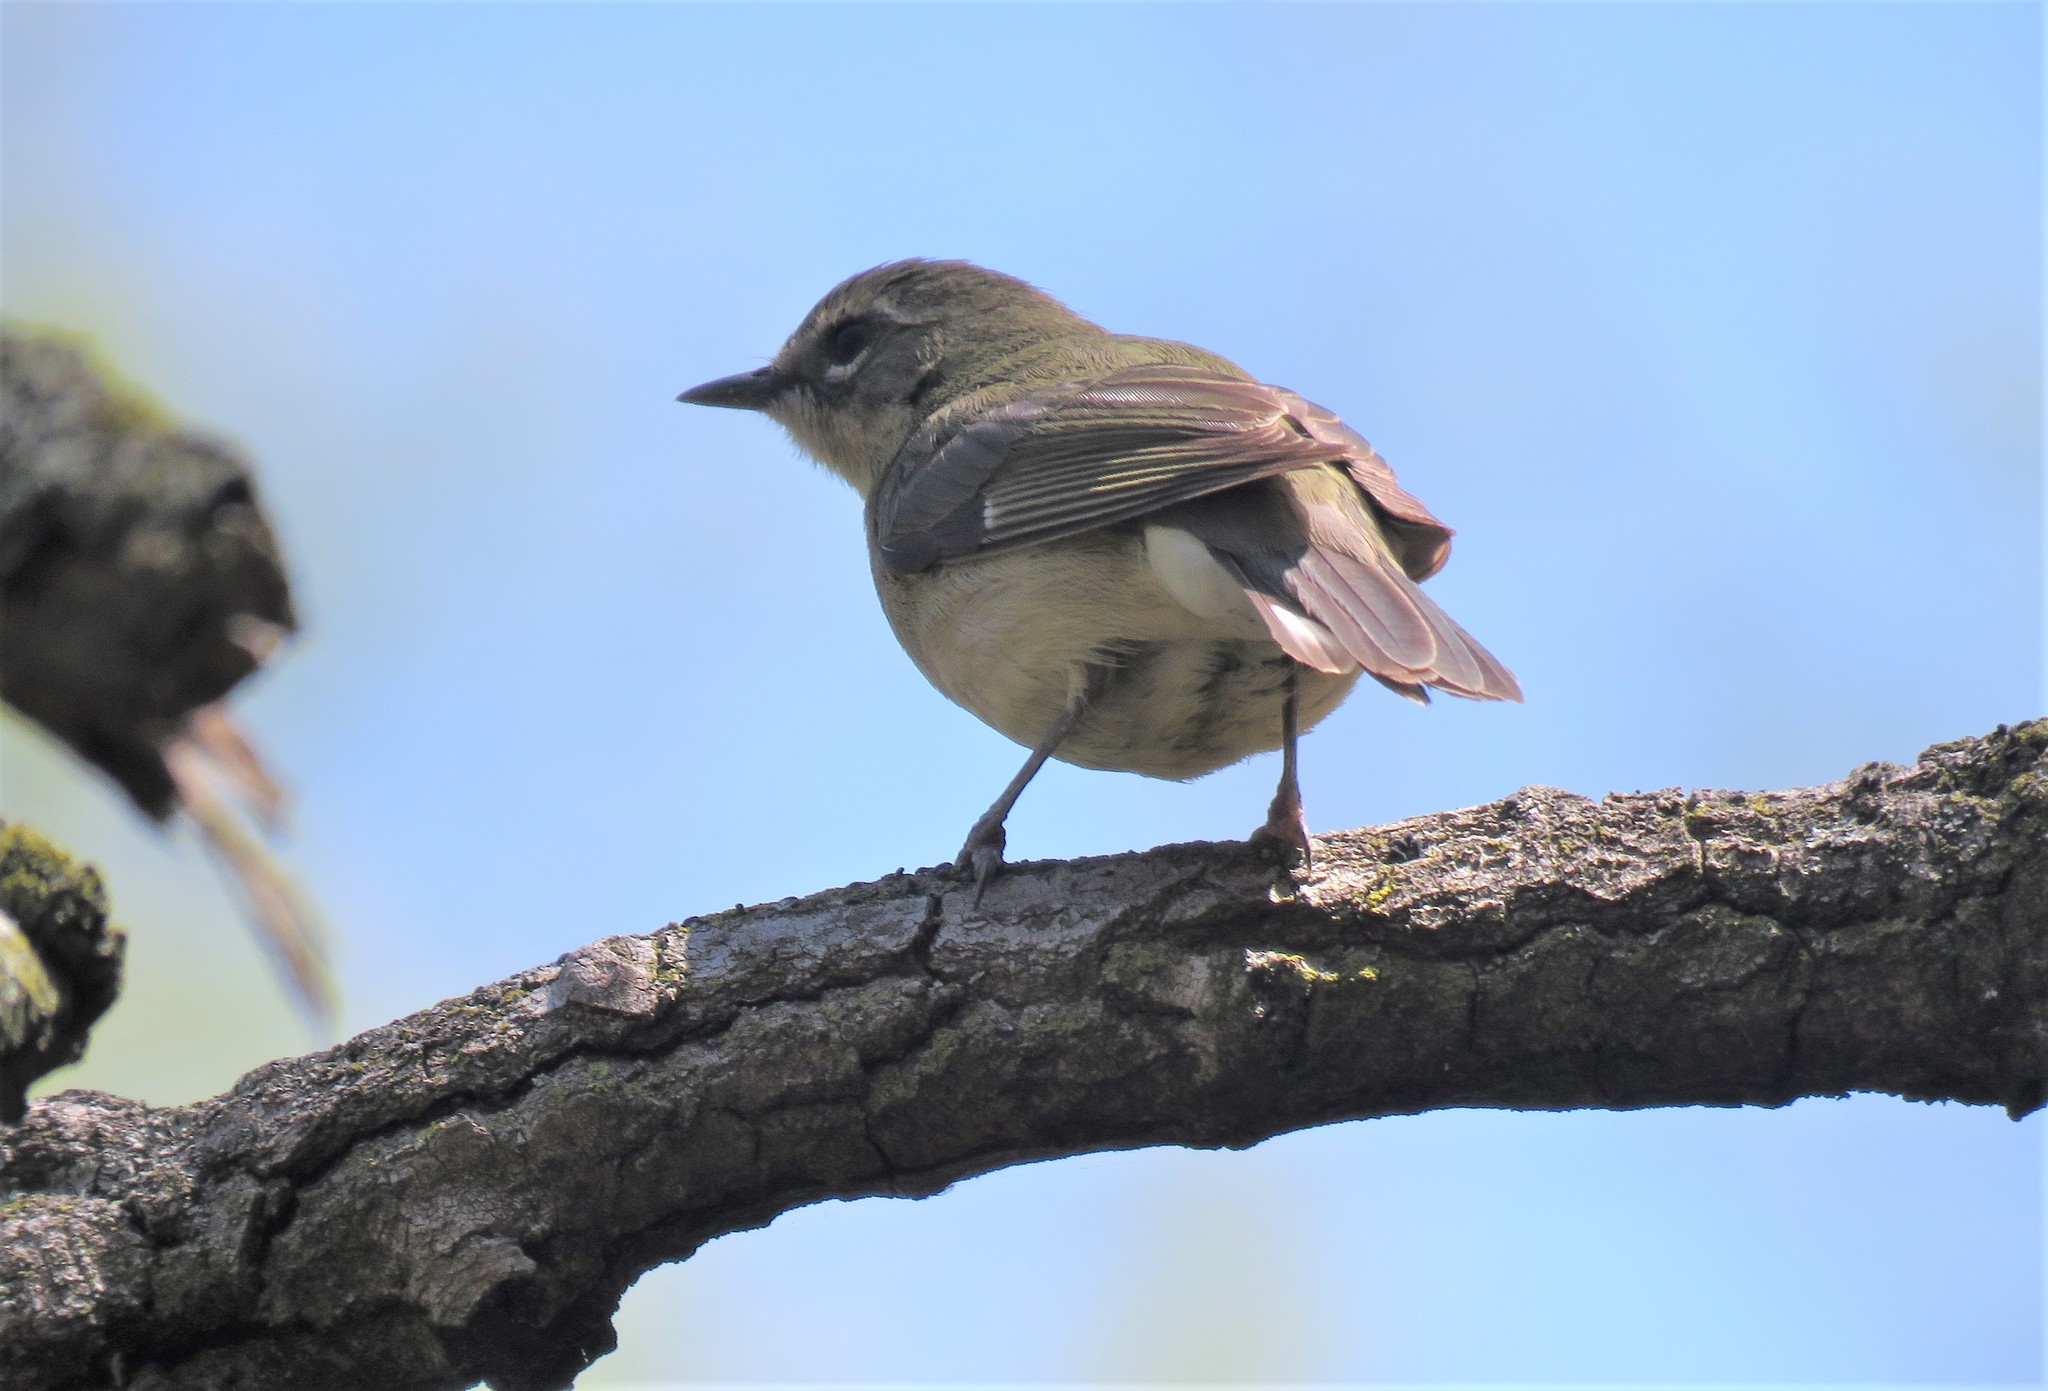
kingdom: Animalia
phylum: Chordata
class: Aves
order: Passeriformes
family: Parulidae
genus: Setophaga
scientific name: Setophaga caerulescens
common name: Black-throated blue warbler
